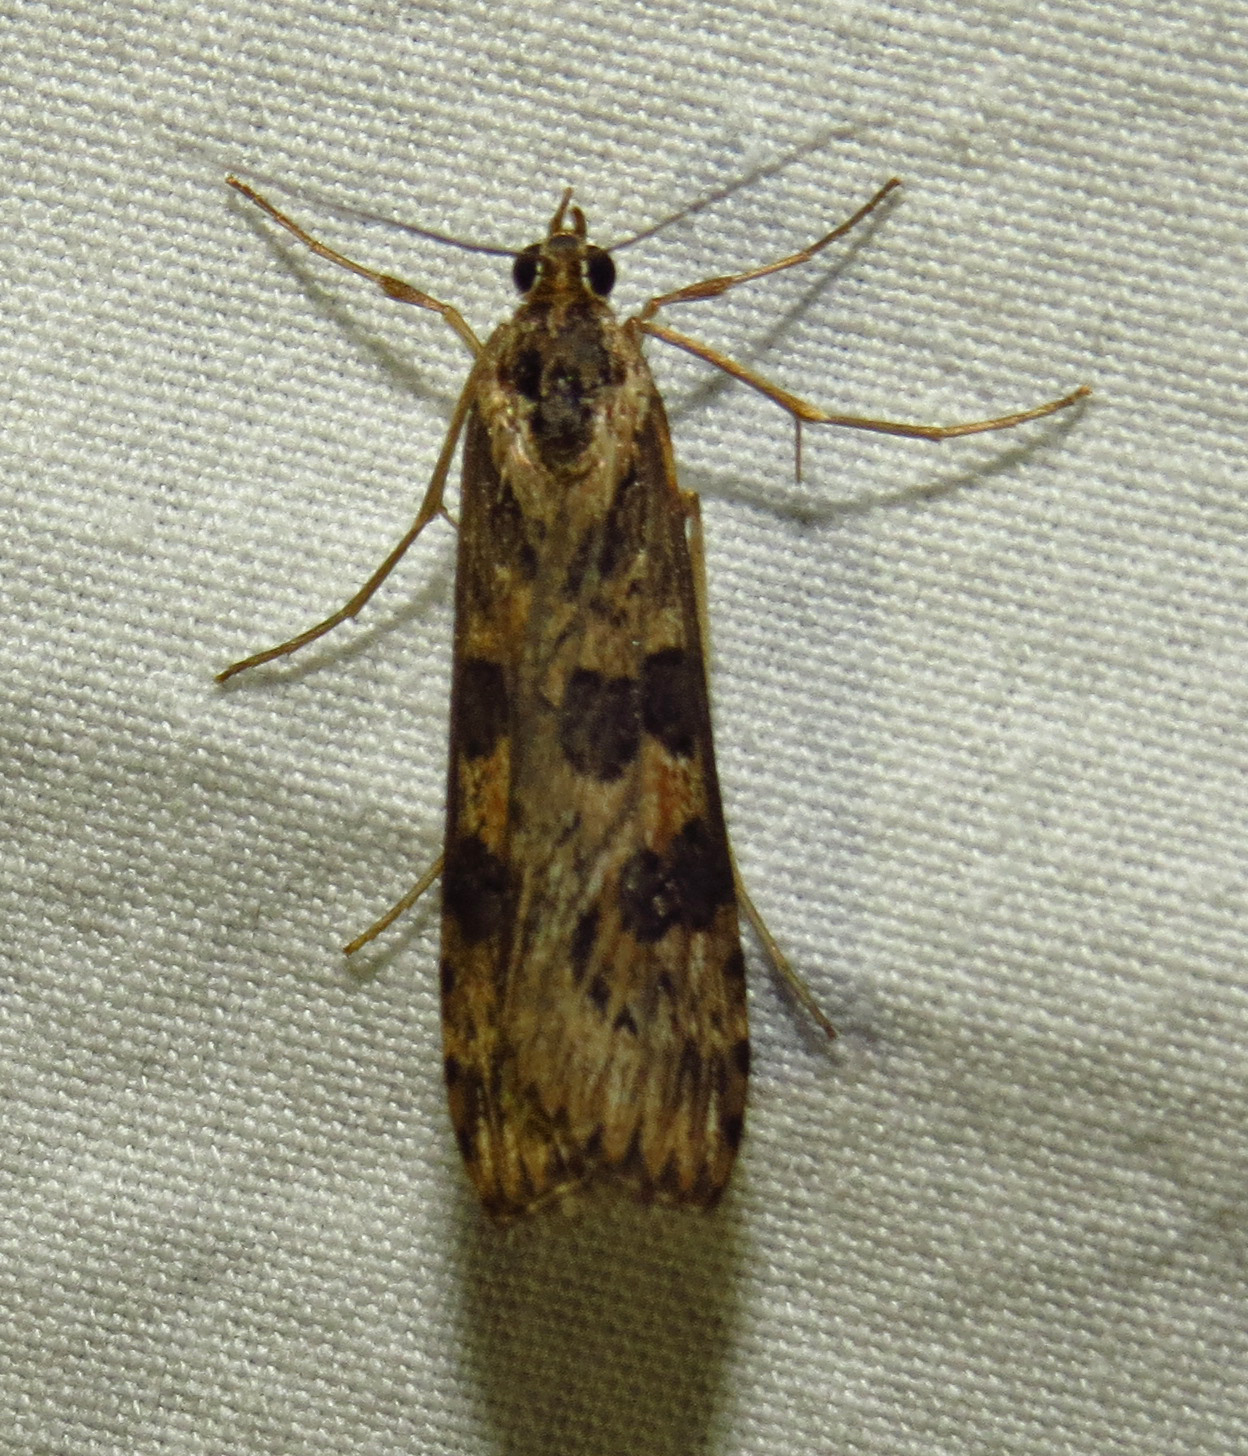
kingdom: Animalia
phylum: Arthropoda
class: Insecta
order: Lepidoptera
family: Crambidae
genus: Nomophila
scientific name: Nomophila nearctica
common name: American rush veneer
